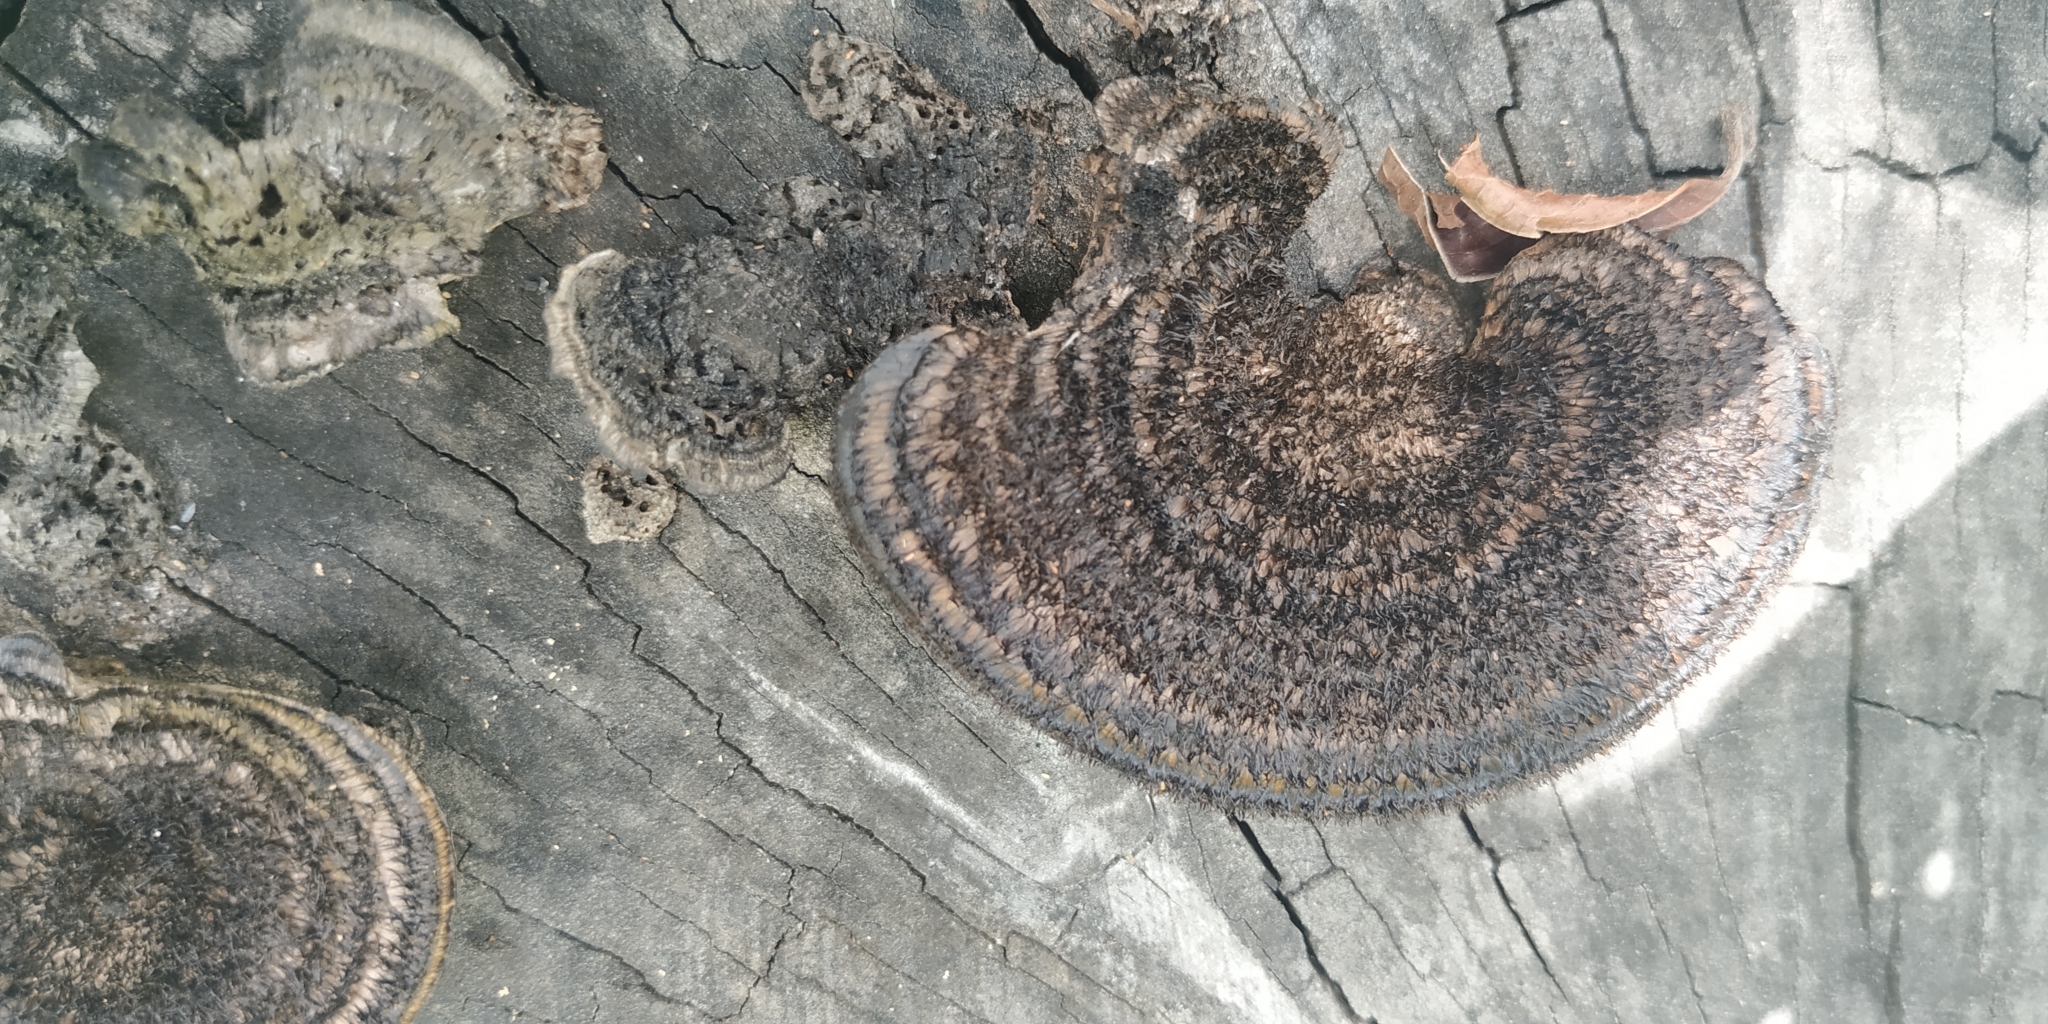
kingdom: Fungi
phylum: Basidiomycota
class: Agaricomycetes
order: Polyporales
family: Cerrenaceae
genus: Cerrena
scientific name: Cerrena hydnoides
